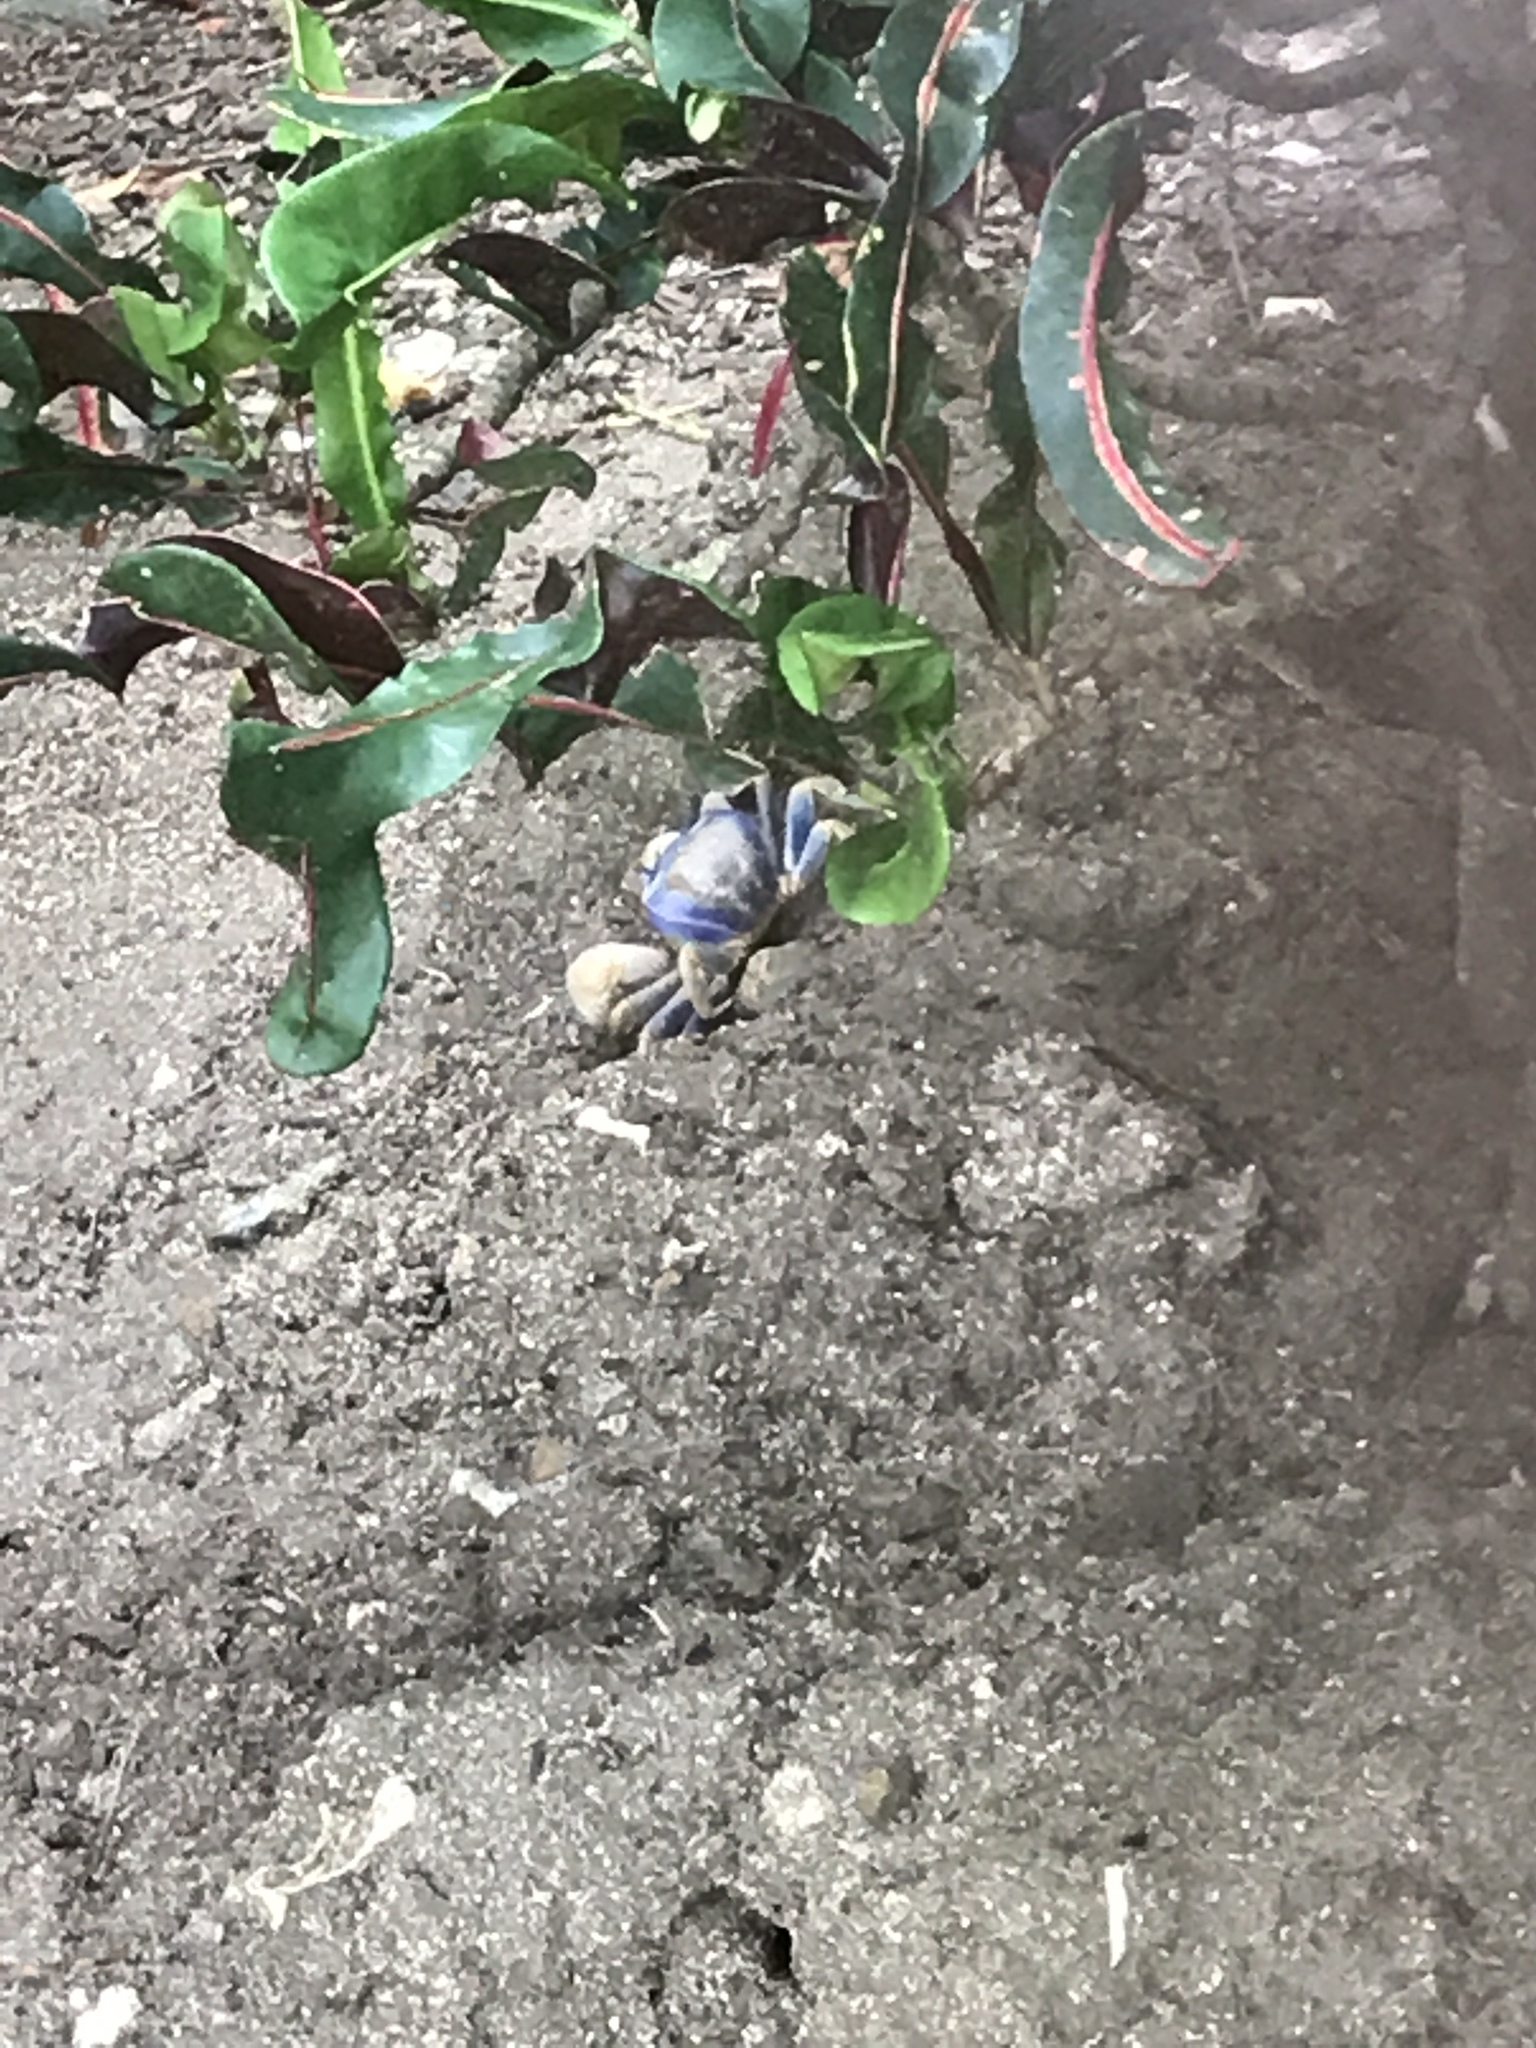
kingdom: Animalia
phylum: Arthropoda
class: Malacostraca
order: Decapoda
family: Gecarcinidae
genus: Cardisoma
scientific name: Cardisoma guanhumi
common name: Great land crab
